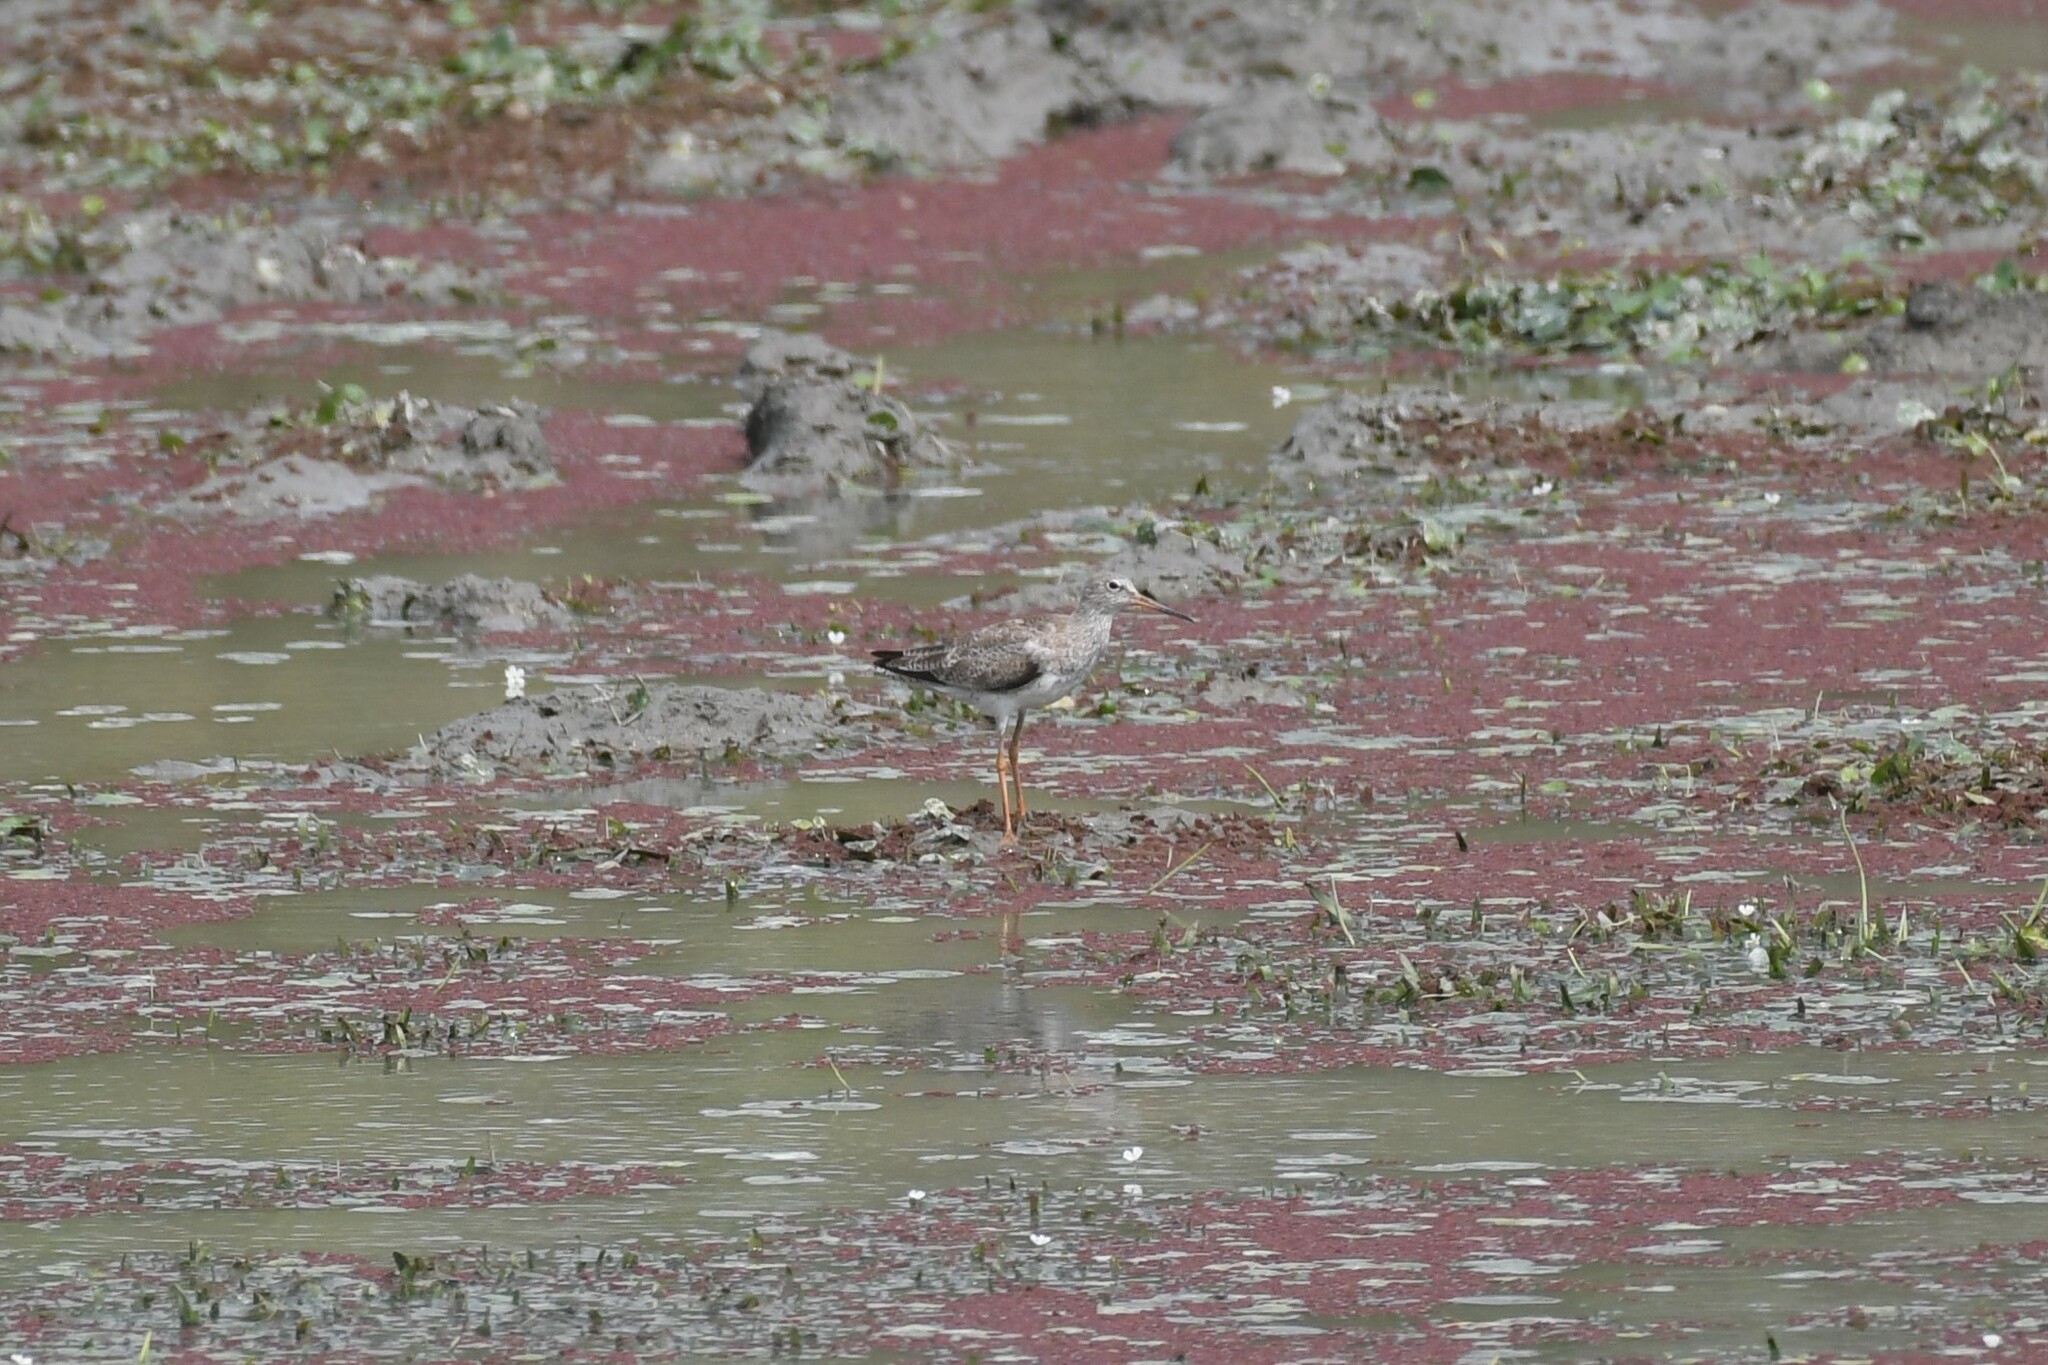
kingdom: Animalia
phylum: Chordata
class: Aves
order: Charadriiformes
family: Scolopacidae
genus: Tringa
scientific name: Tringa totanus
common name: Common redshank
